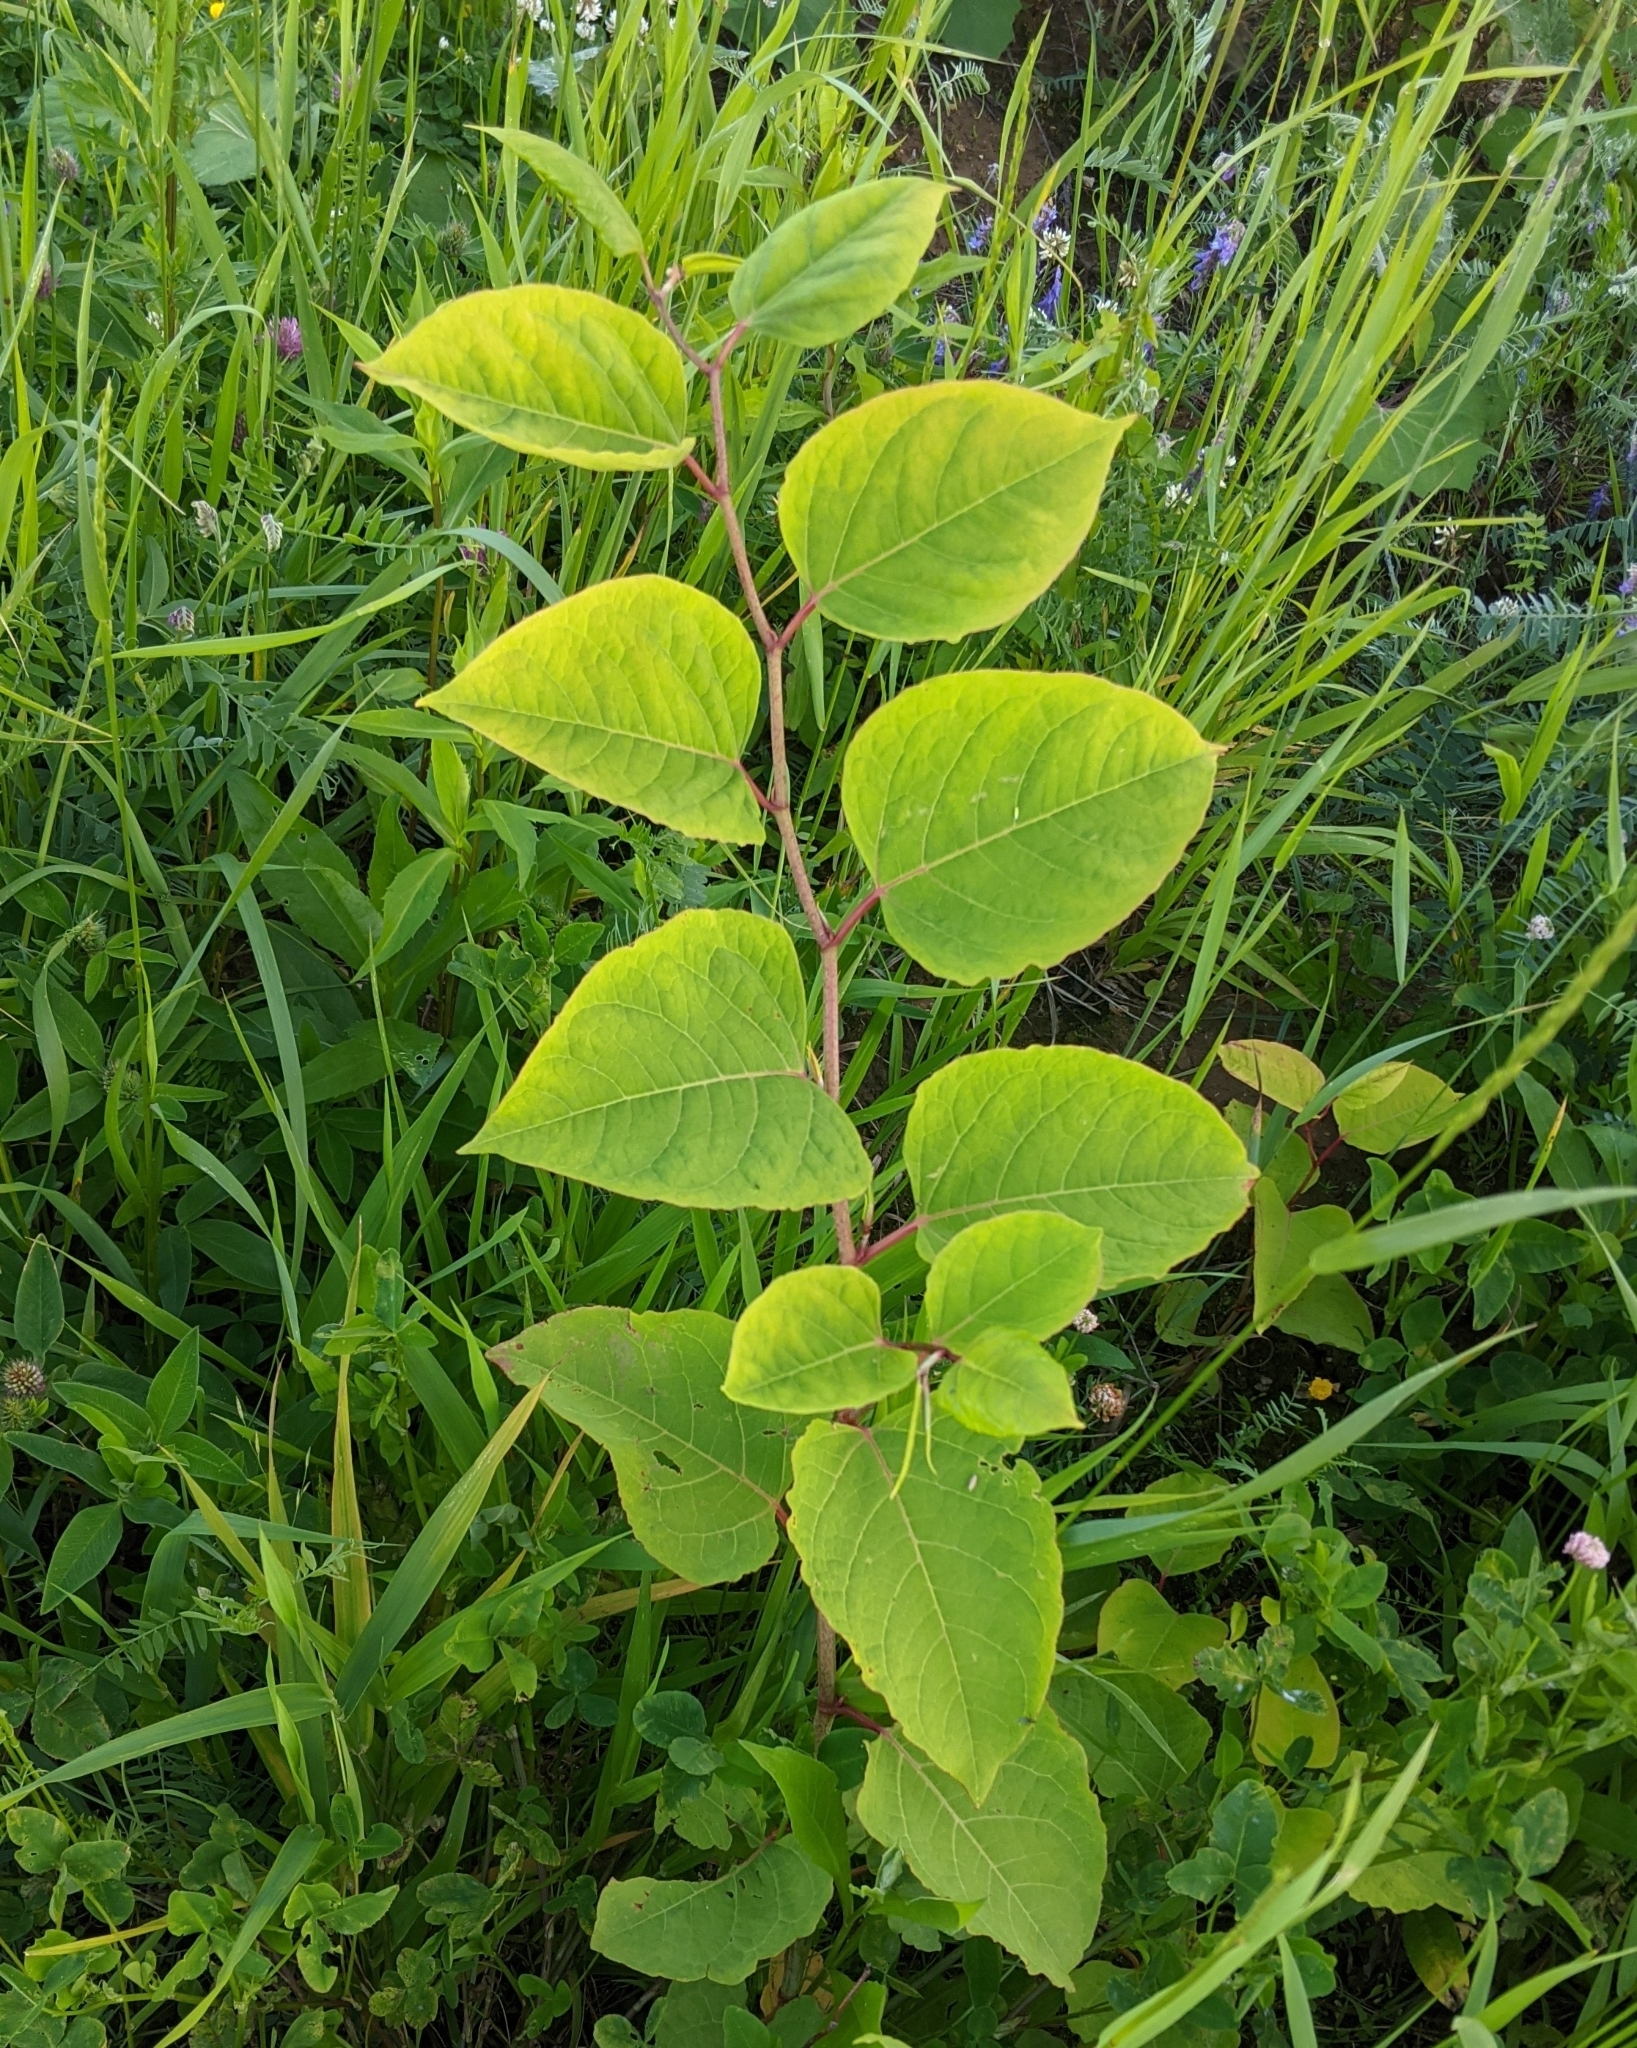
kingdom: Plantae
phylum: Tracheophyta
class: Magnoliopsida
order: Caryophyllales
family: Polygonaceae
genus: Reynoutria
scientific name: Reynoutria bohemica
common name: Bohemian knotweed
